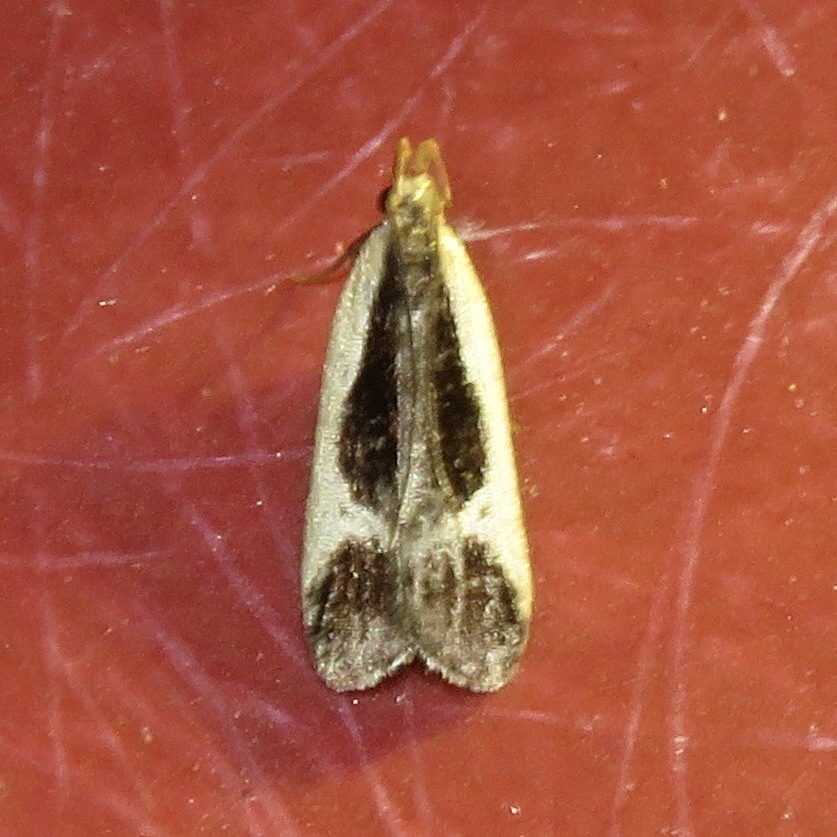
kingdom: Animalia
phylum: Arthropoda
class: Insecta
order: Lepidoptera
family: Gelechiidae
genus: Dichomeris
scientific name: Dichomeris flavocostella
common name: Cream-edged dichomeris moth
